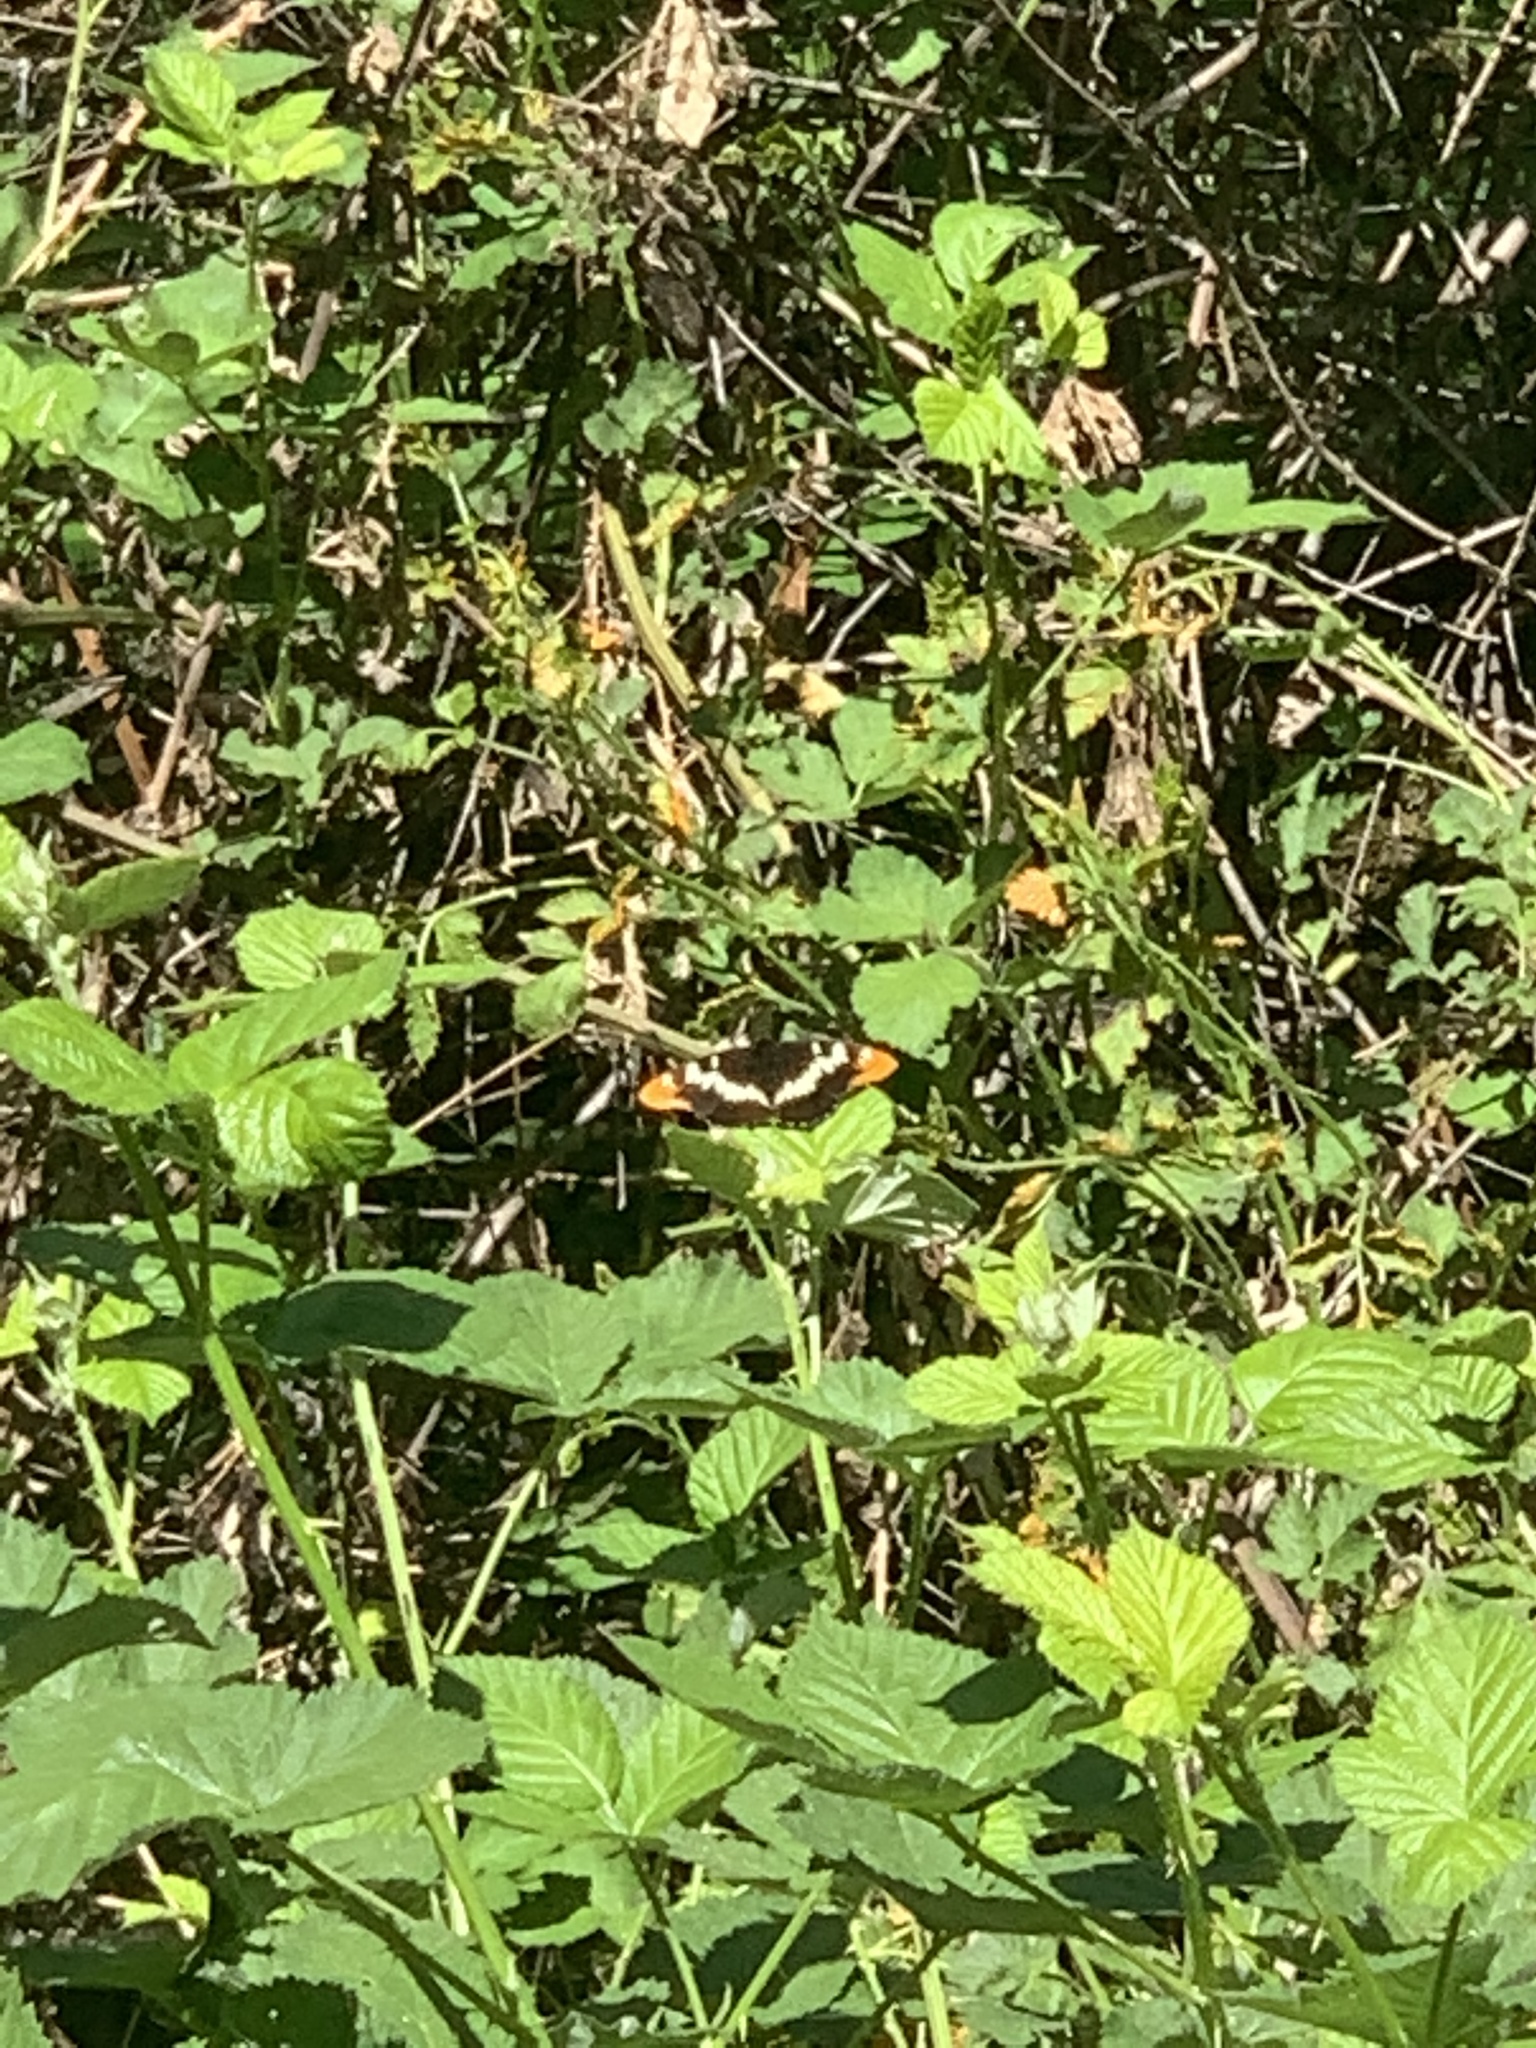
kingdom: Animalia
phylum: Arthropoda
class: Insecta
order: Lepidoptera
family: Nymphalidae
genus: Limenitis
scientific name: Limenitis lorquini
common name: Lorquin's admiral
